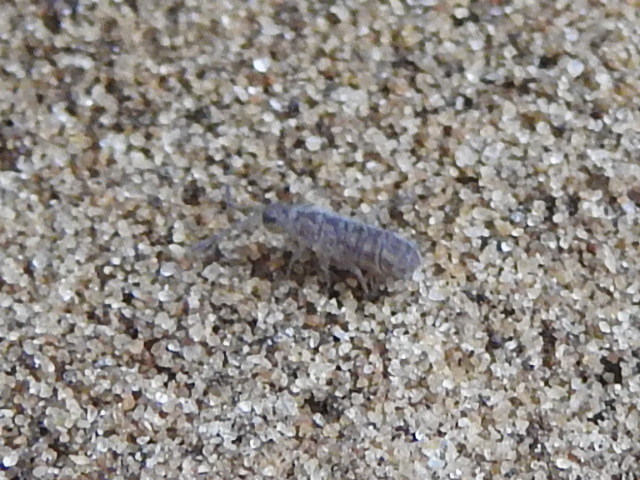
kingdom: Animalia
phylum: Arthropoda
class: Collembola
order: Entomobryomorpha
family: Isotomidae
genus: Isotoma
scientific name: Isotoma delta
